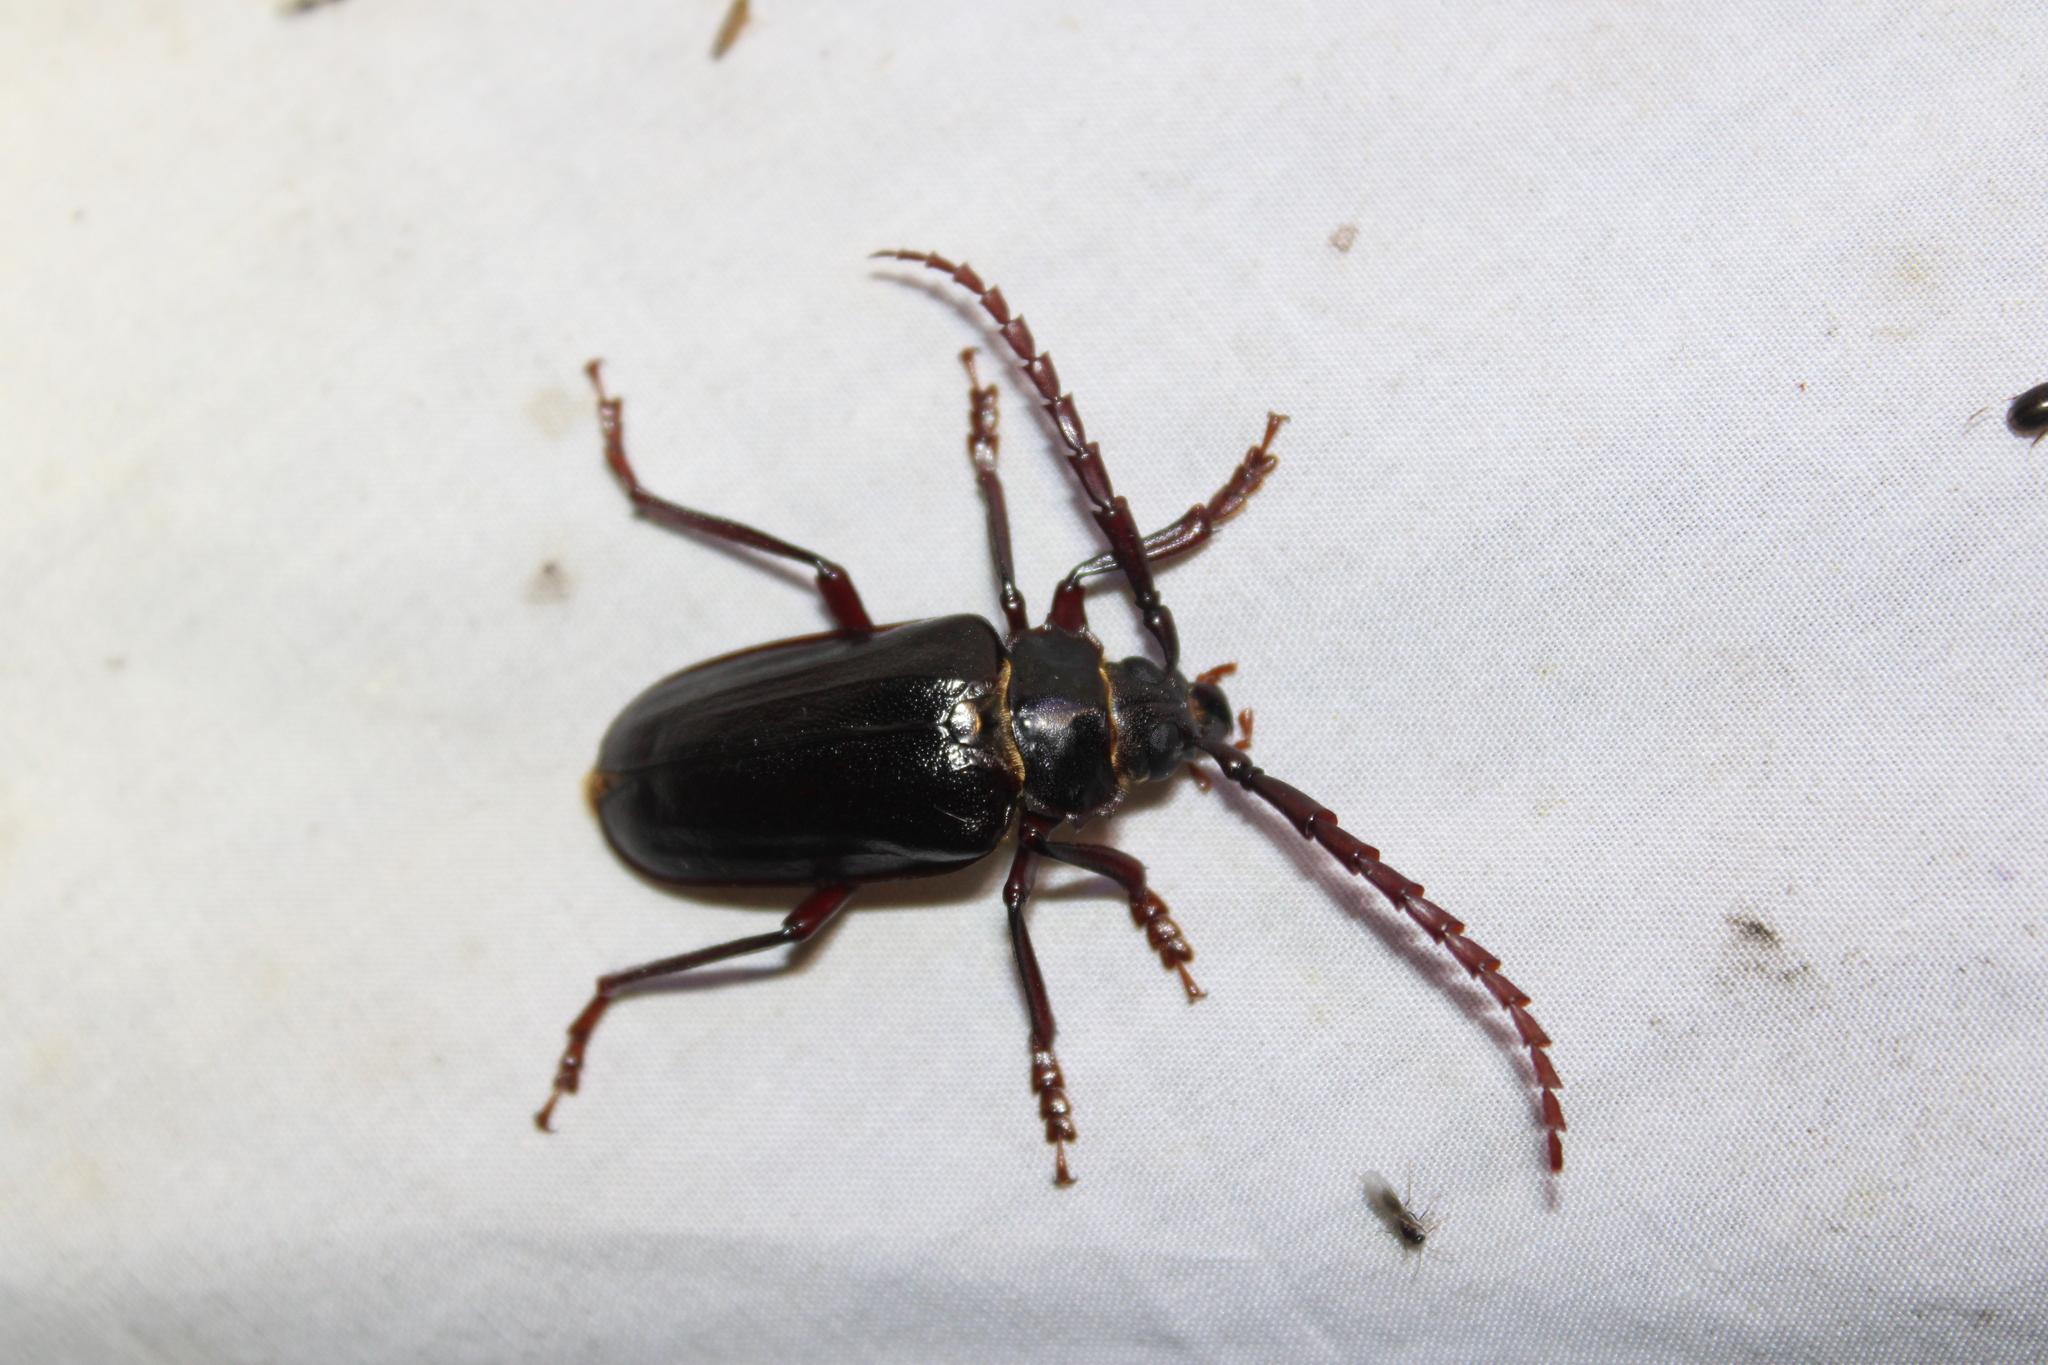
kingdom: Animalia
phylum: Arthropoda
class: Insecta
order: Coleoptera
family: Cerambycidae
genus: Prionus
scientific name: Prionus pocularis
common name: Tooth-necked longhorn beetle
